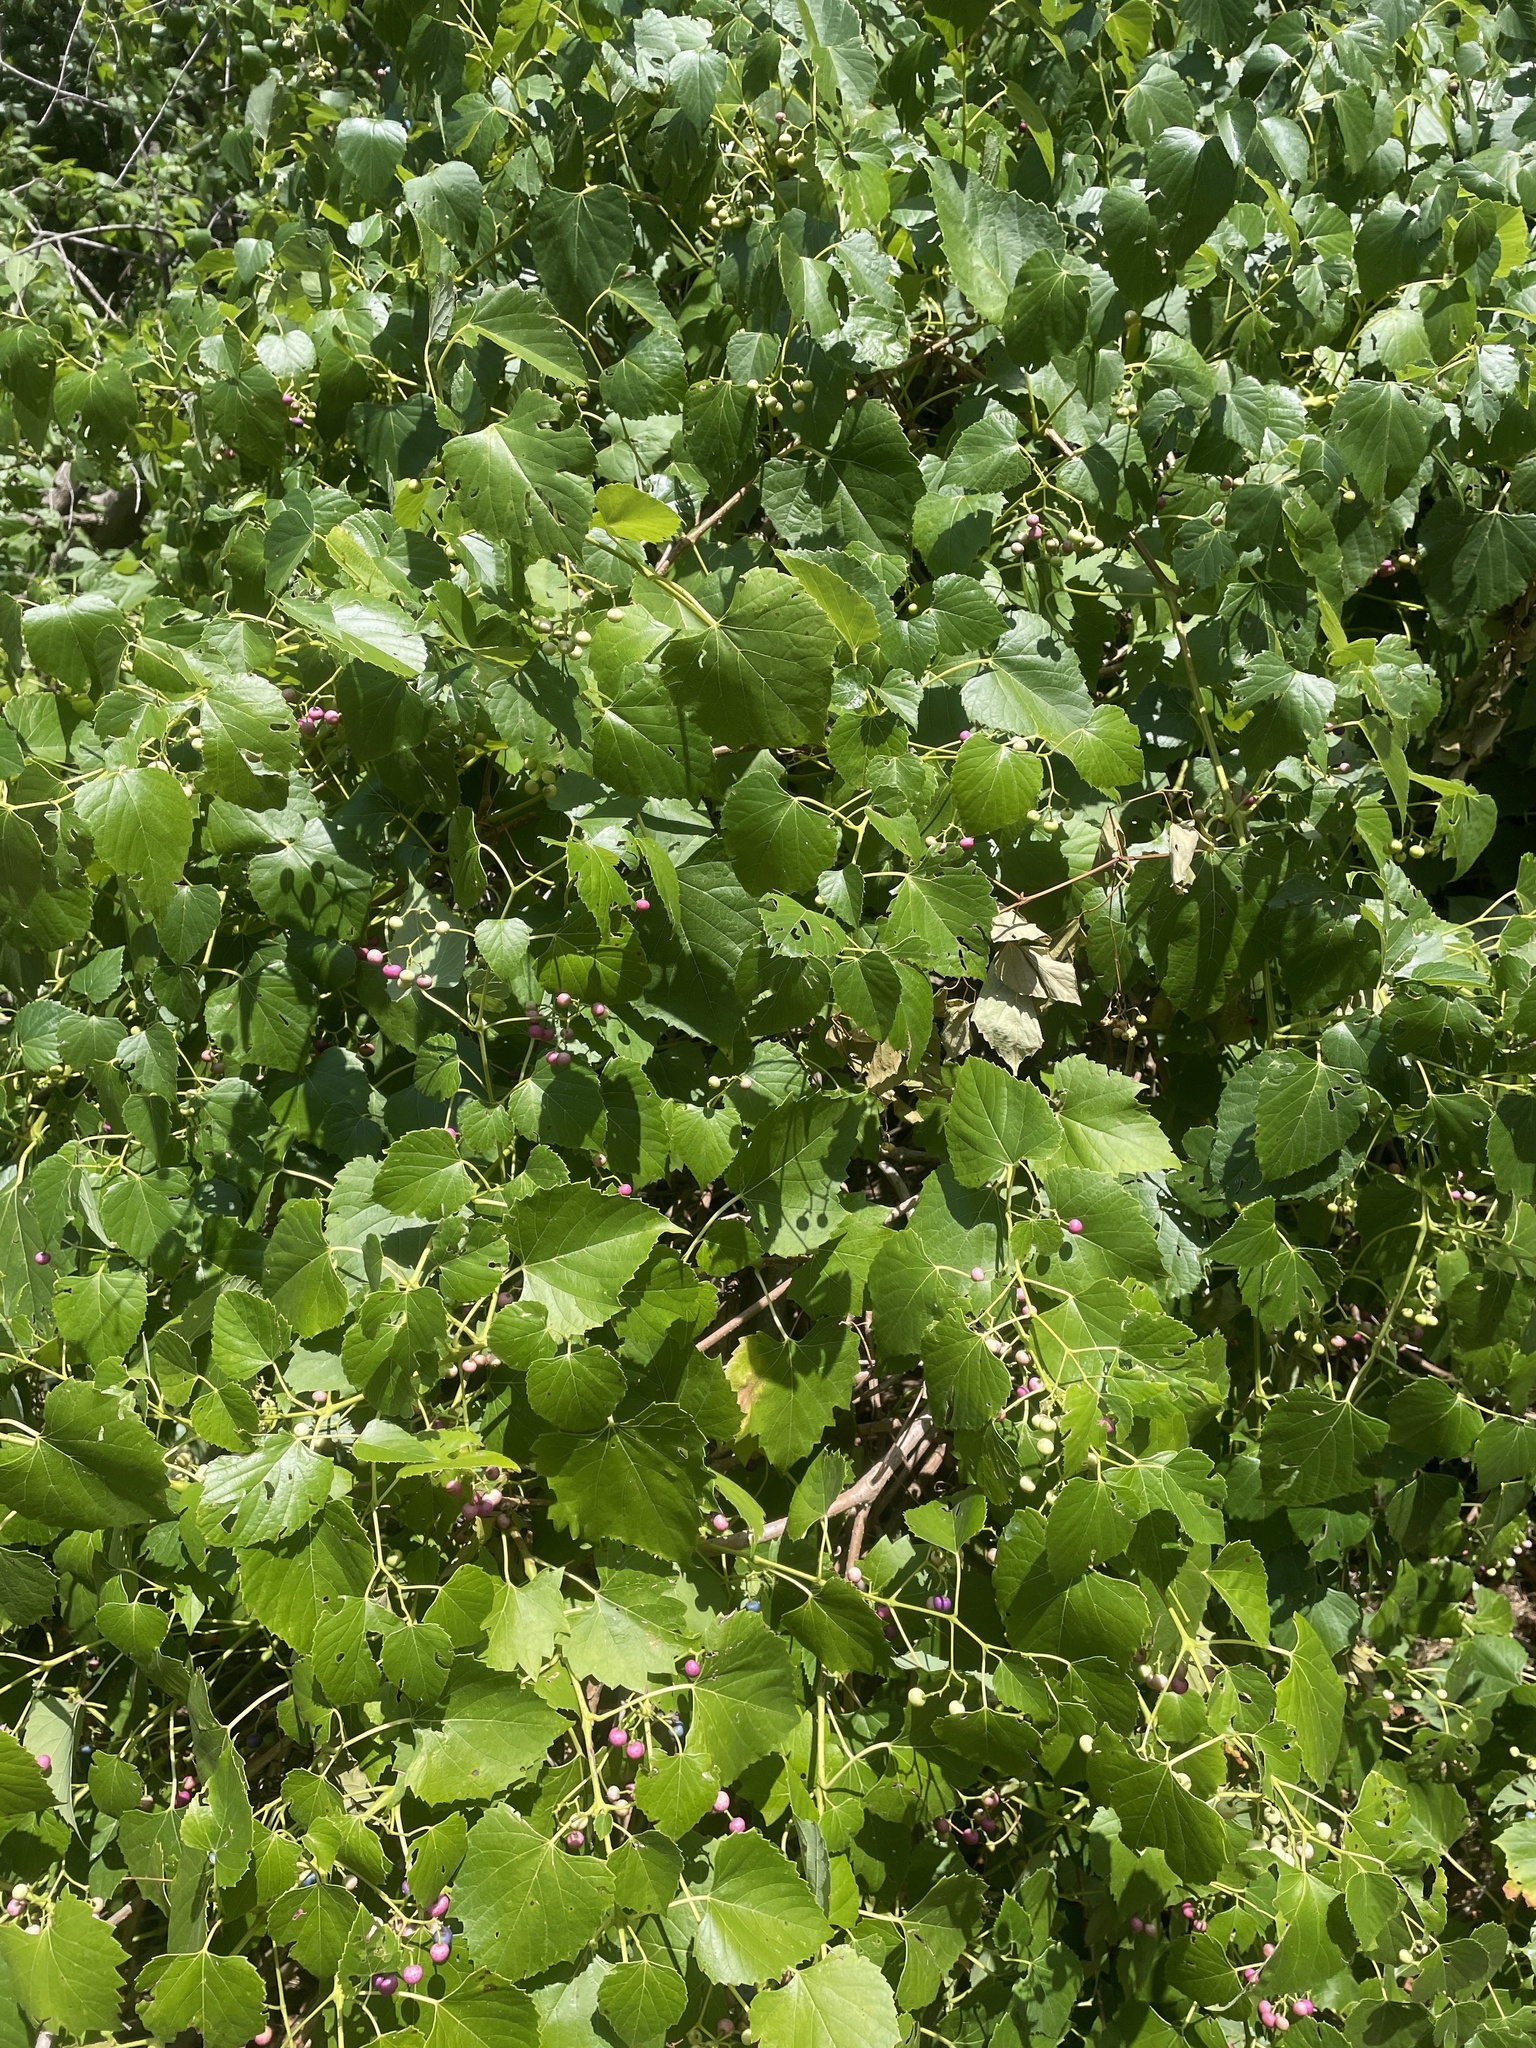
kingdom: Plantae
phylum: Tracheophyta
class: Magnoliopsida
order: Vitales
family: Vitaceae
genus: Ampelopsis
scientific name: Ampelopsis cordata
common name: Heart-leaf ampelopsis
